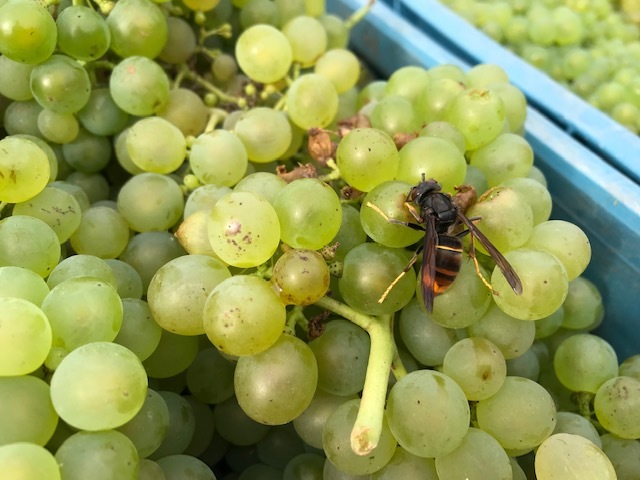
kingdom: Animalia
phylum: Arthropoda
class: Insecta
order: Hymenoptera
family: Vespidae
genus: Vespa
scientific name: Vespa velutina
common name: Asian hornet
